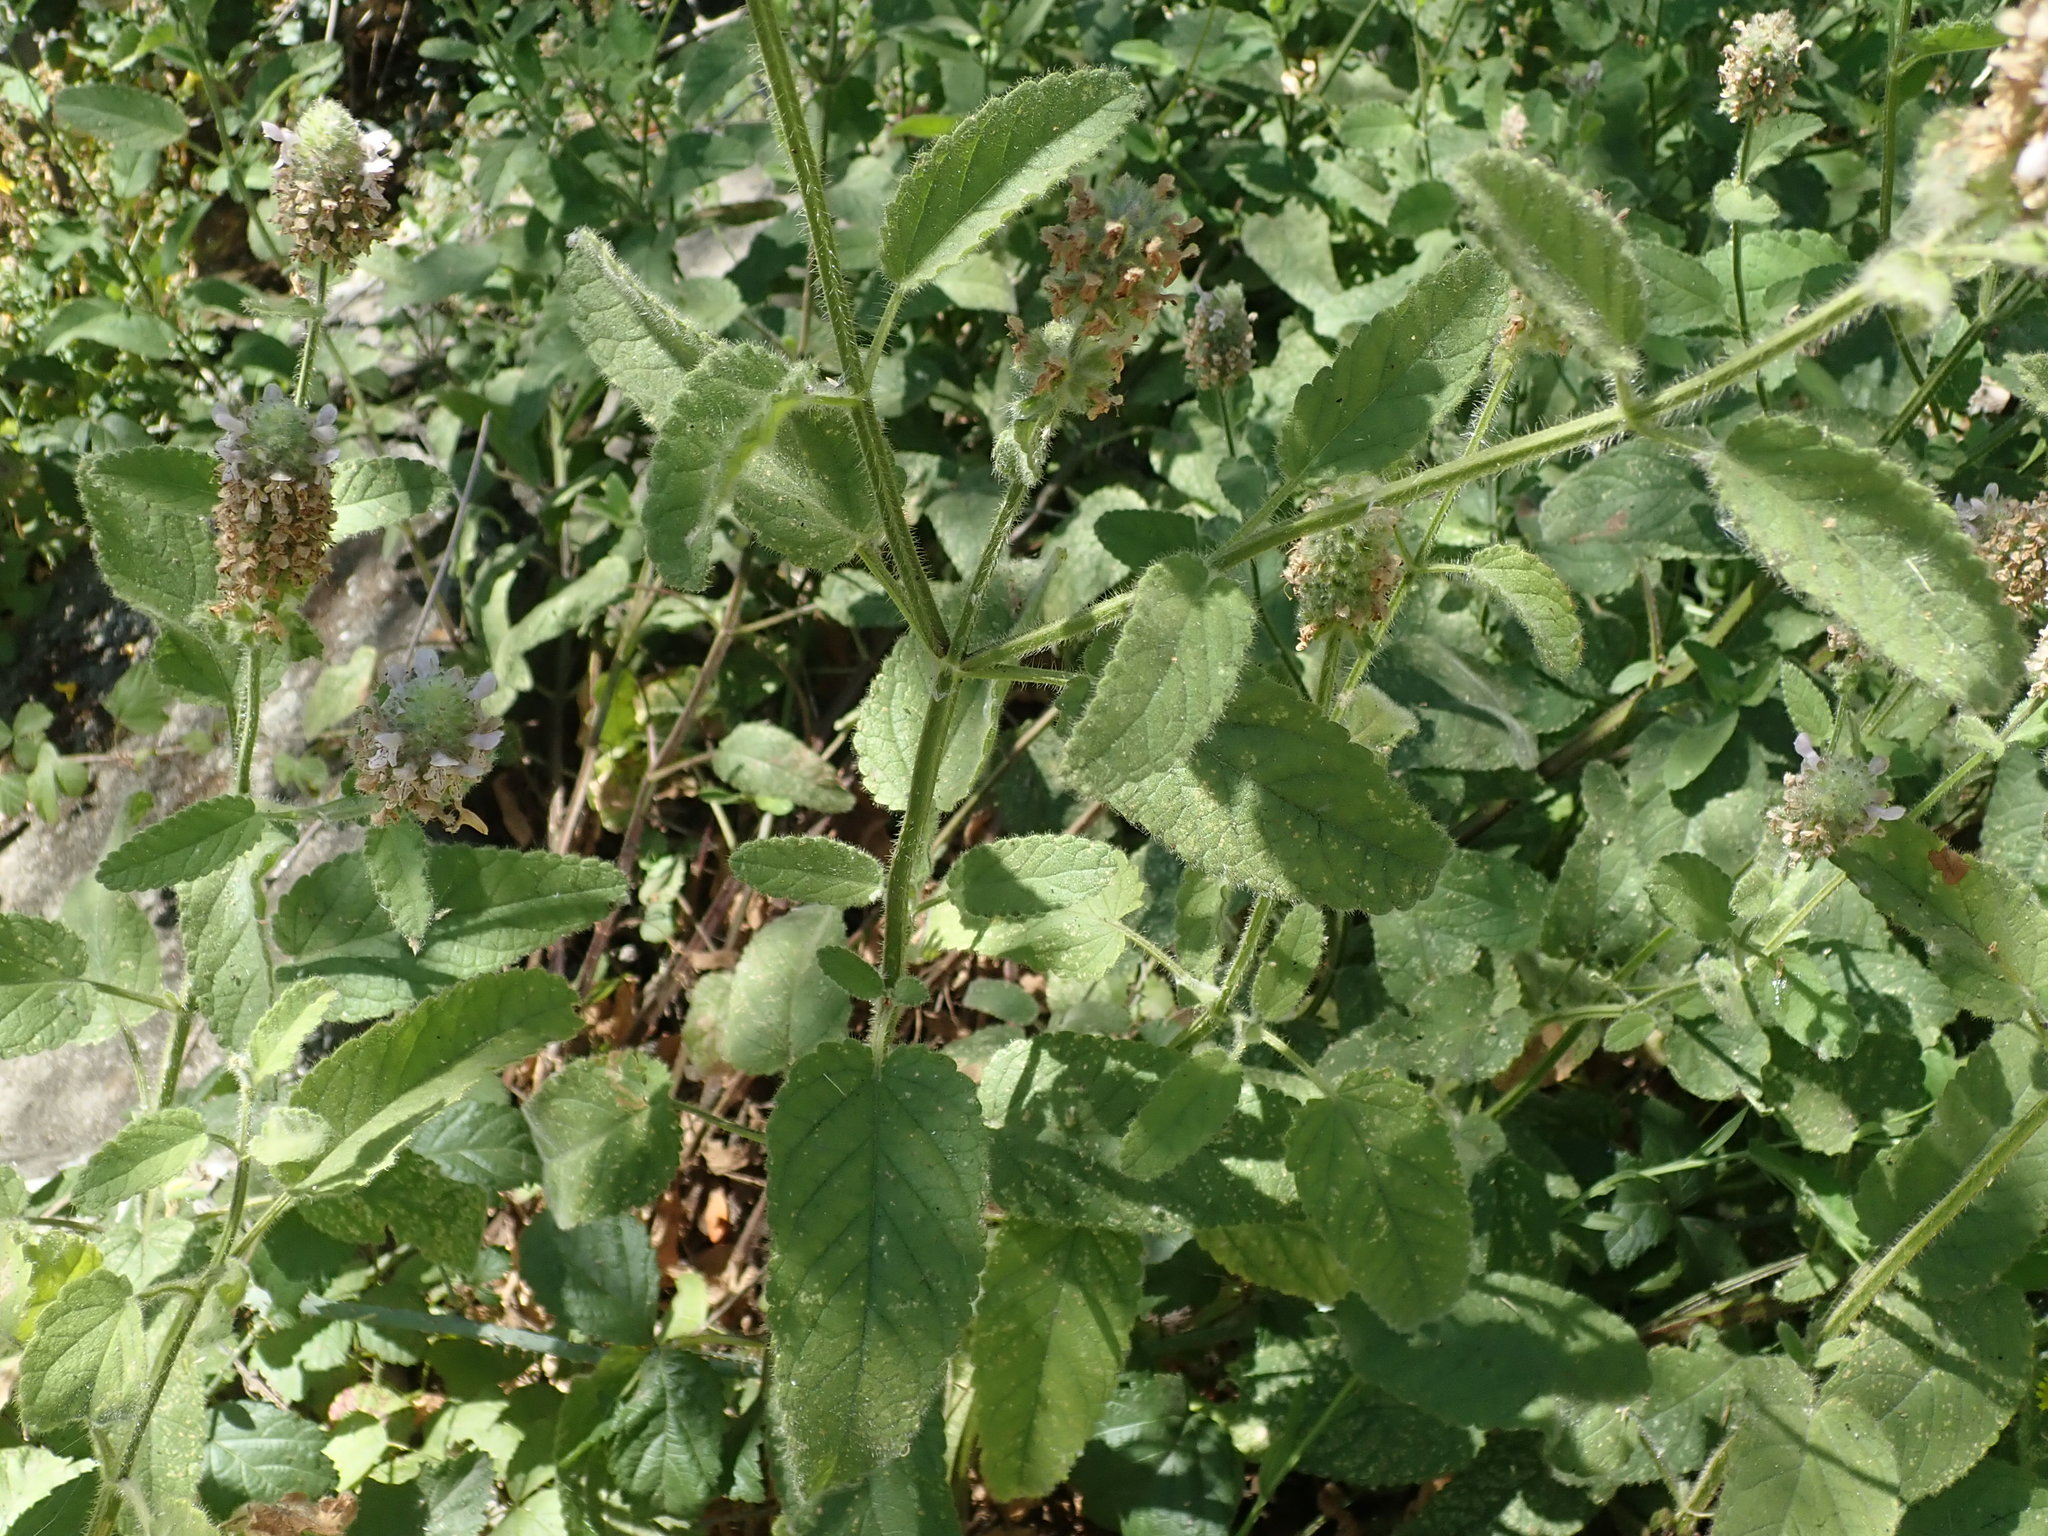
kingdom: Plantae
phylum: Tracheophyta
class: Magnoliopsida
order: Lamiales
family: Lamiaceae
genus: Stachys
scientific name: Stachys pycnantha
